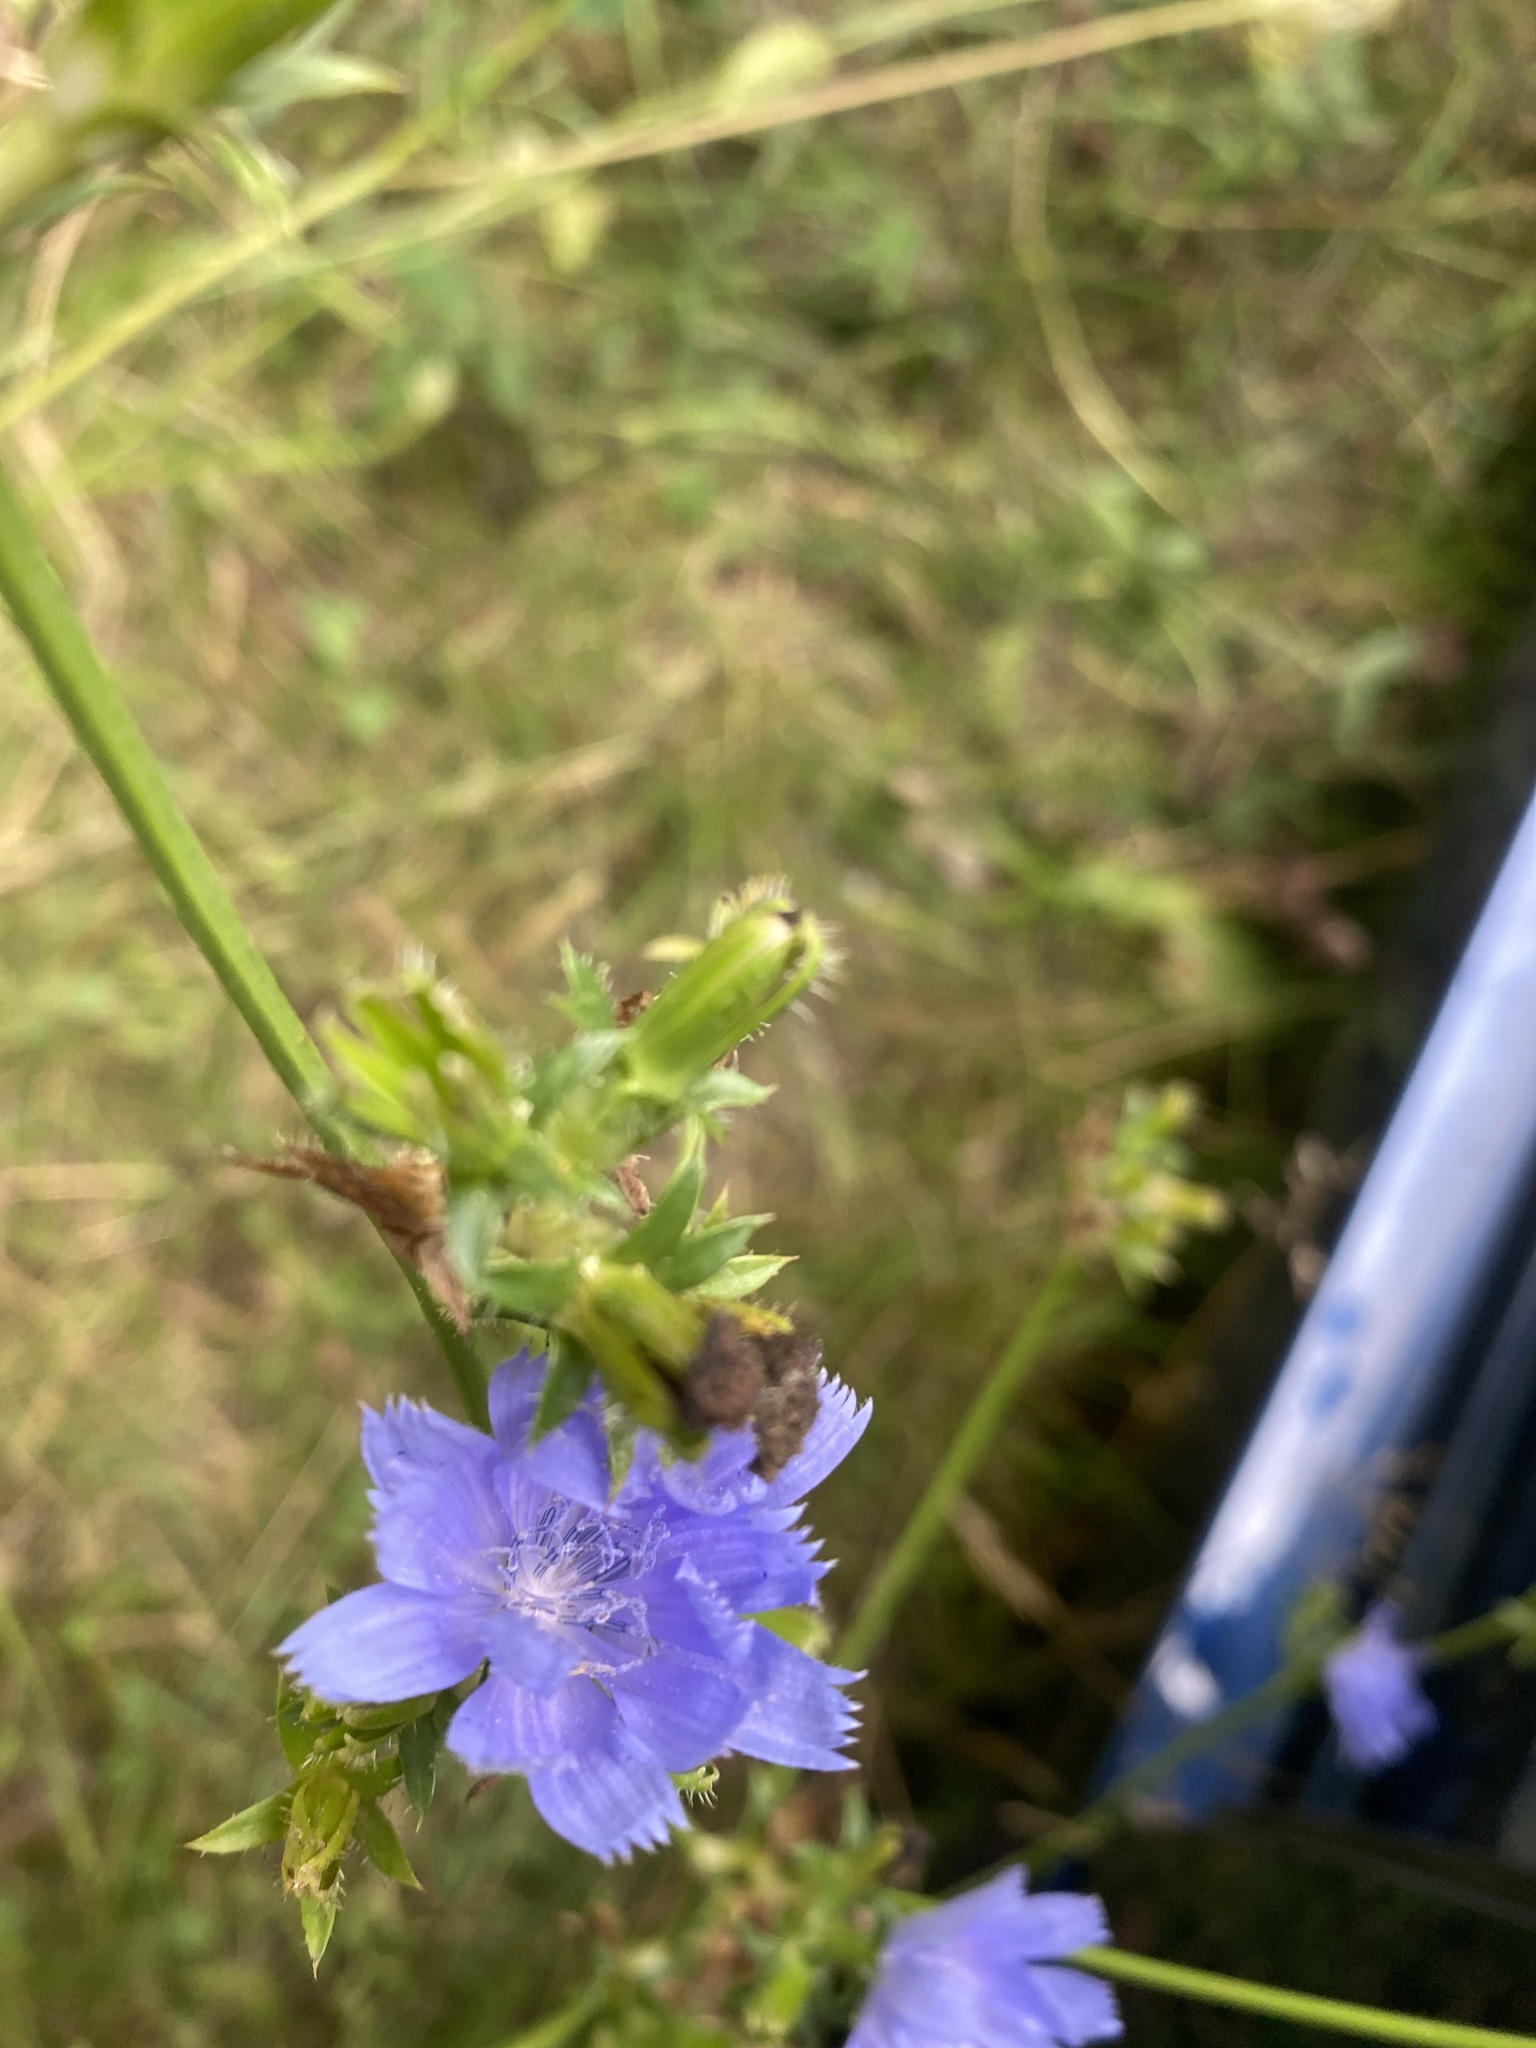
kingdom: Plantae
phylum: Tracheophyta
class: Magnoliopsida
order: Asterales
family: Asteraceae
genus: Cichorium
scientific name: Cichorium intybus
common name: Chicory
